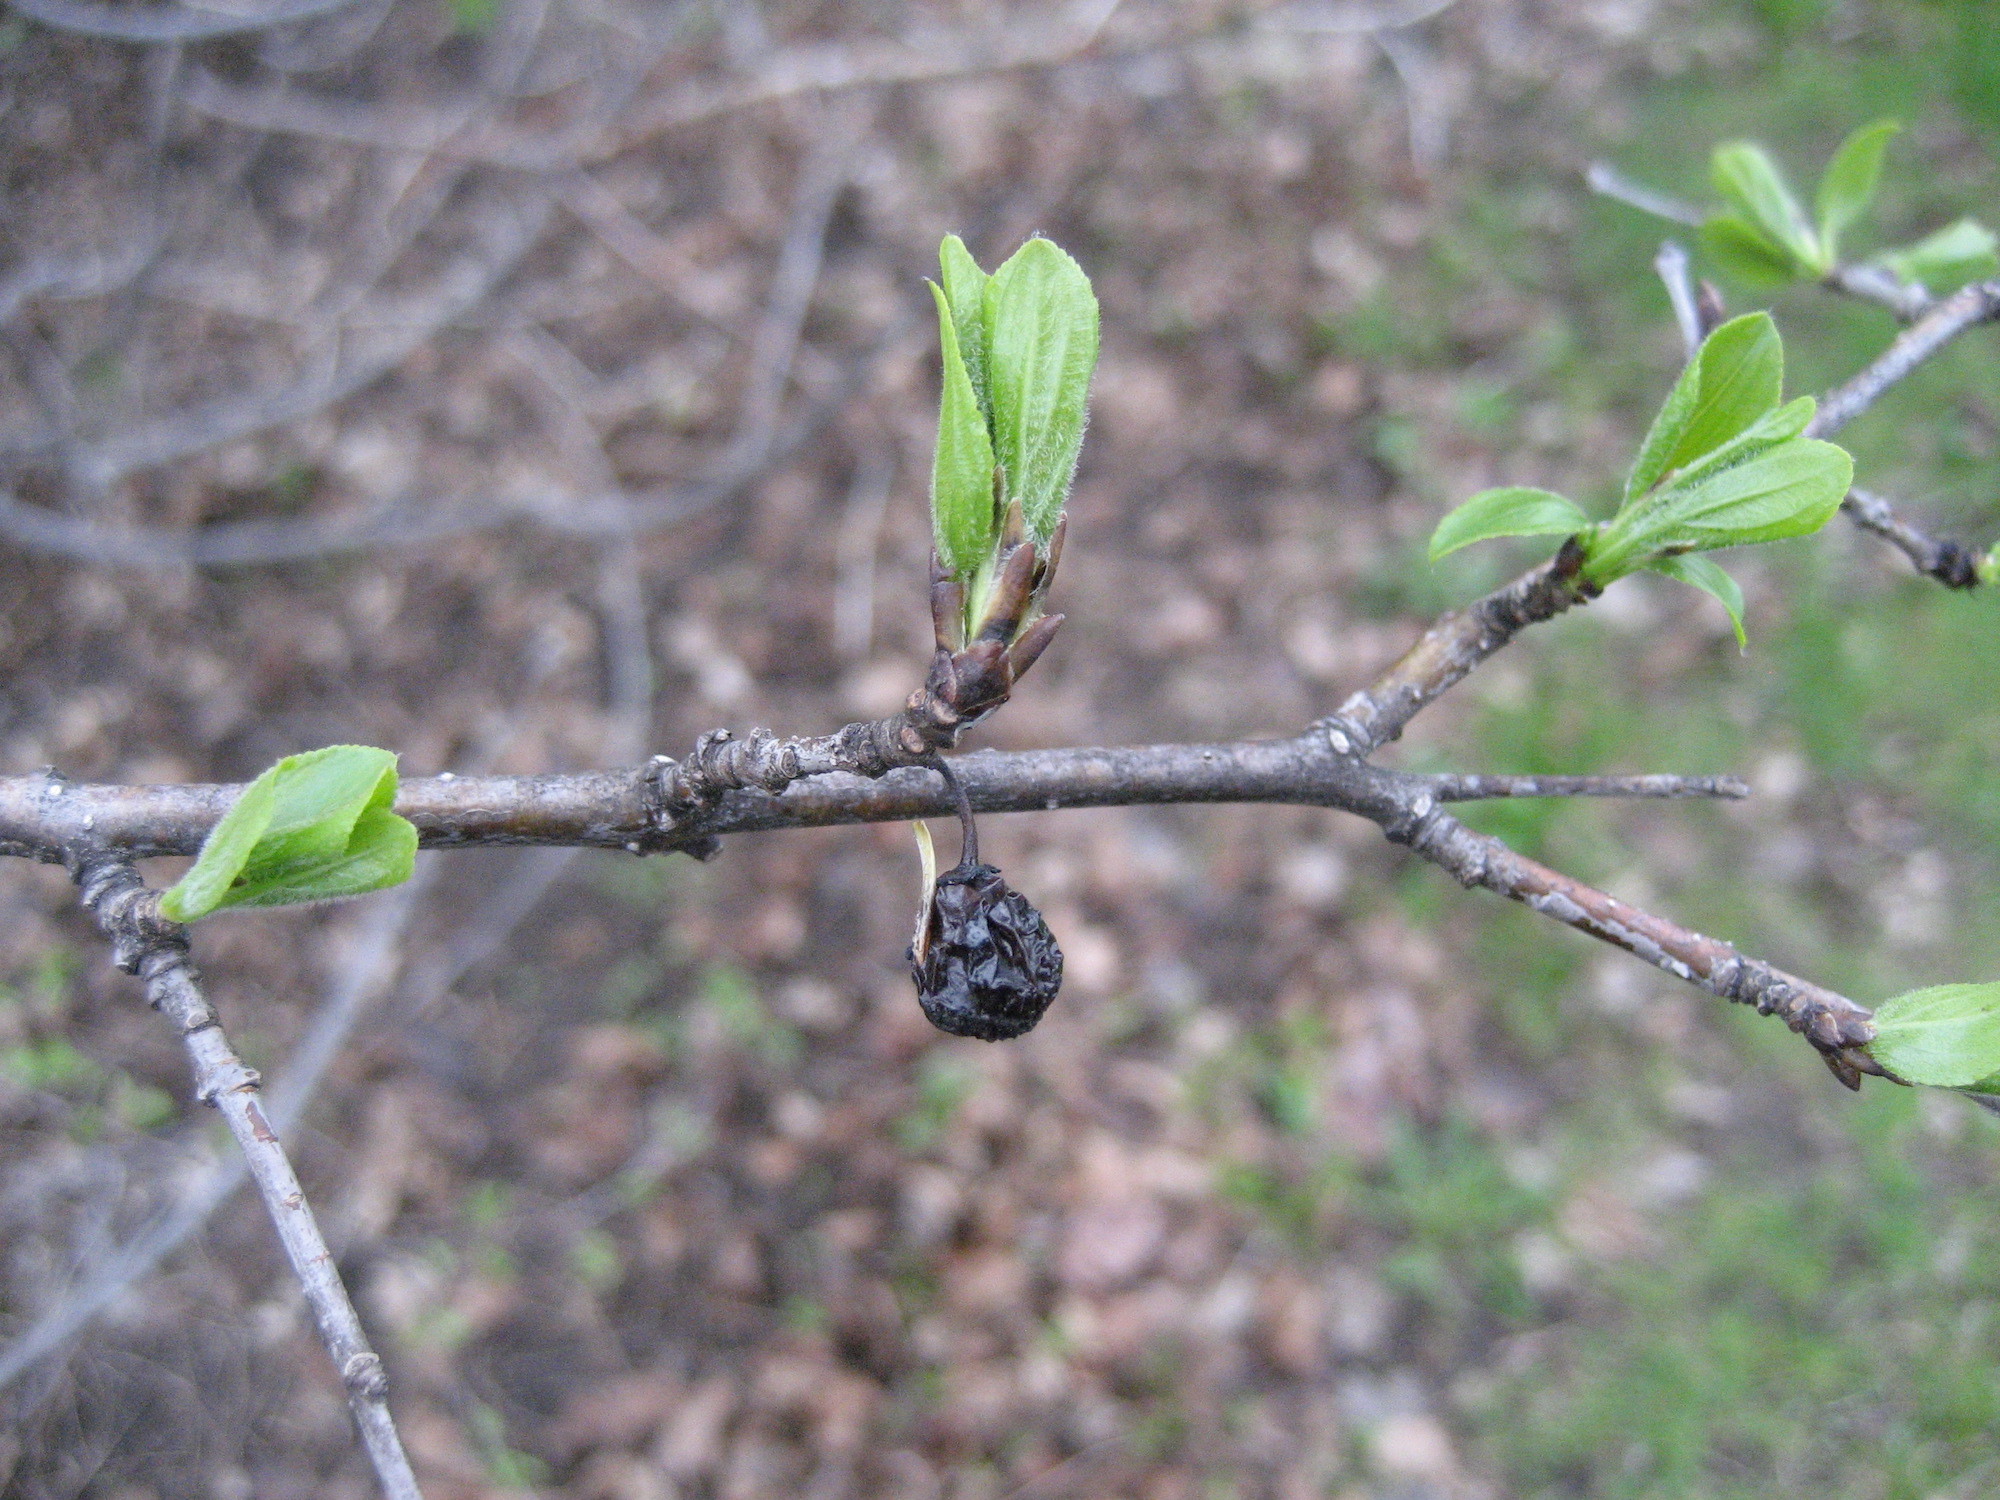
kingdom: Plantae
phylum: Tracheophyta
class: Magnoliopsida
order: Rosales
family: Rhamnaceae
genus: Rhamnus
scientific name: Rhamnus cathartica
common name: Common buckthorn
